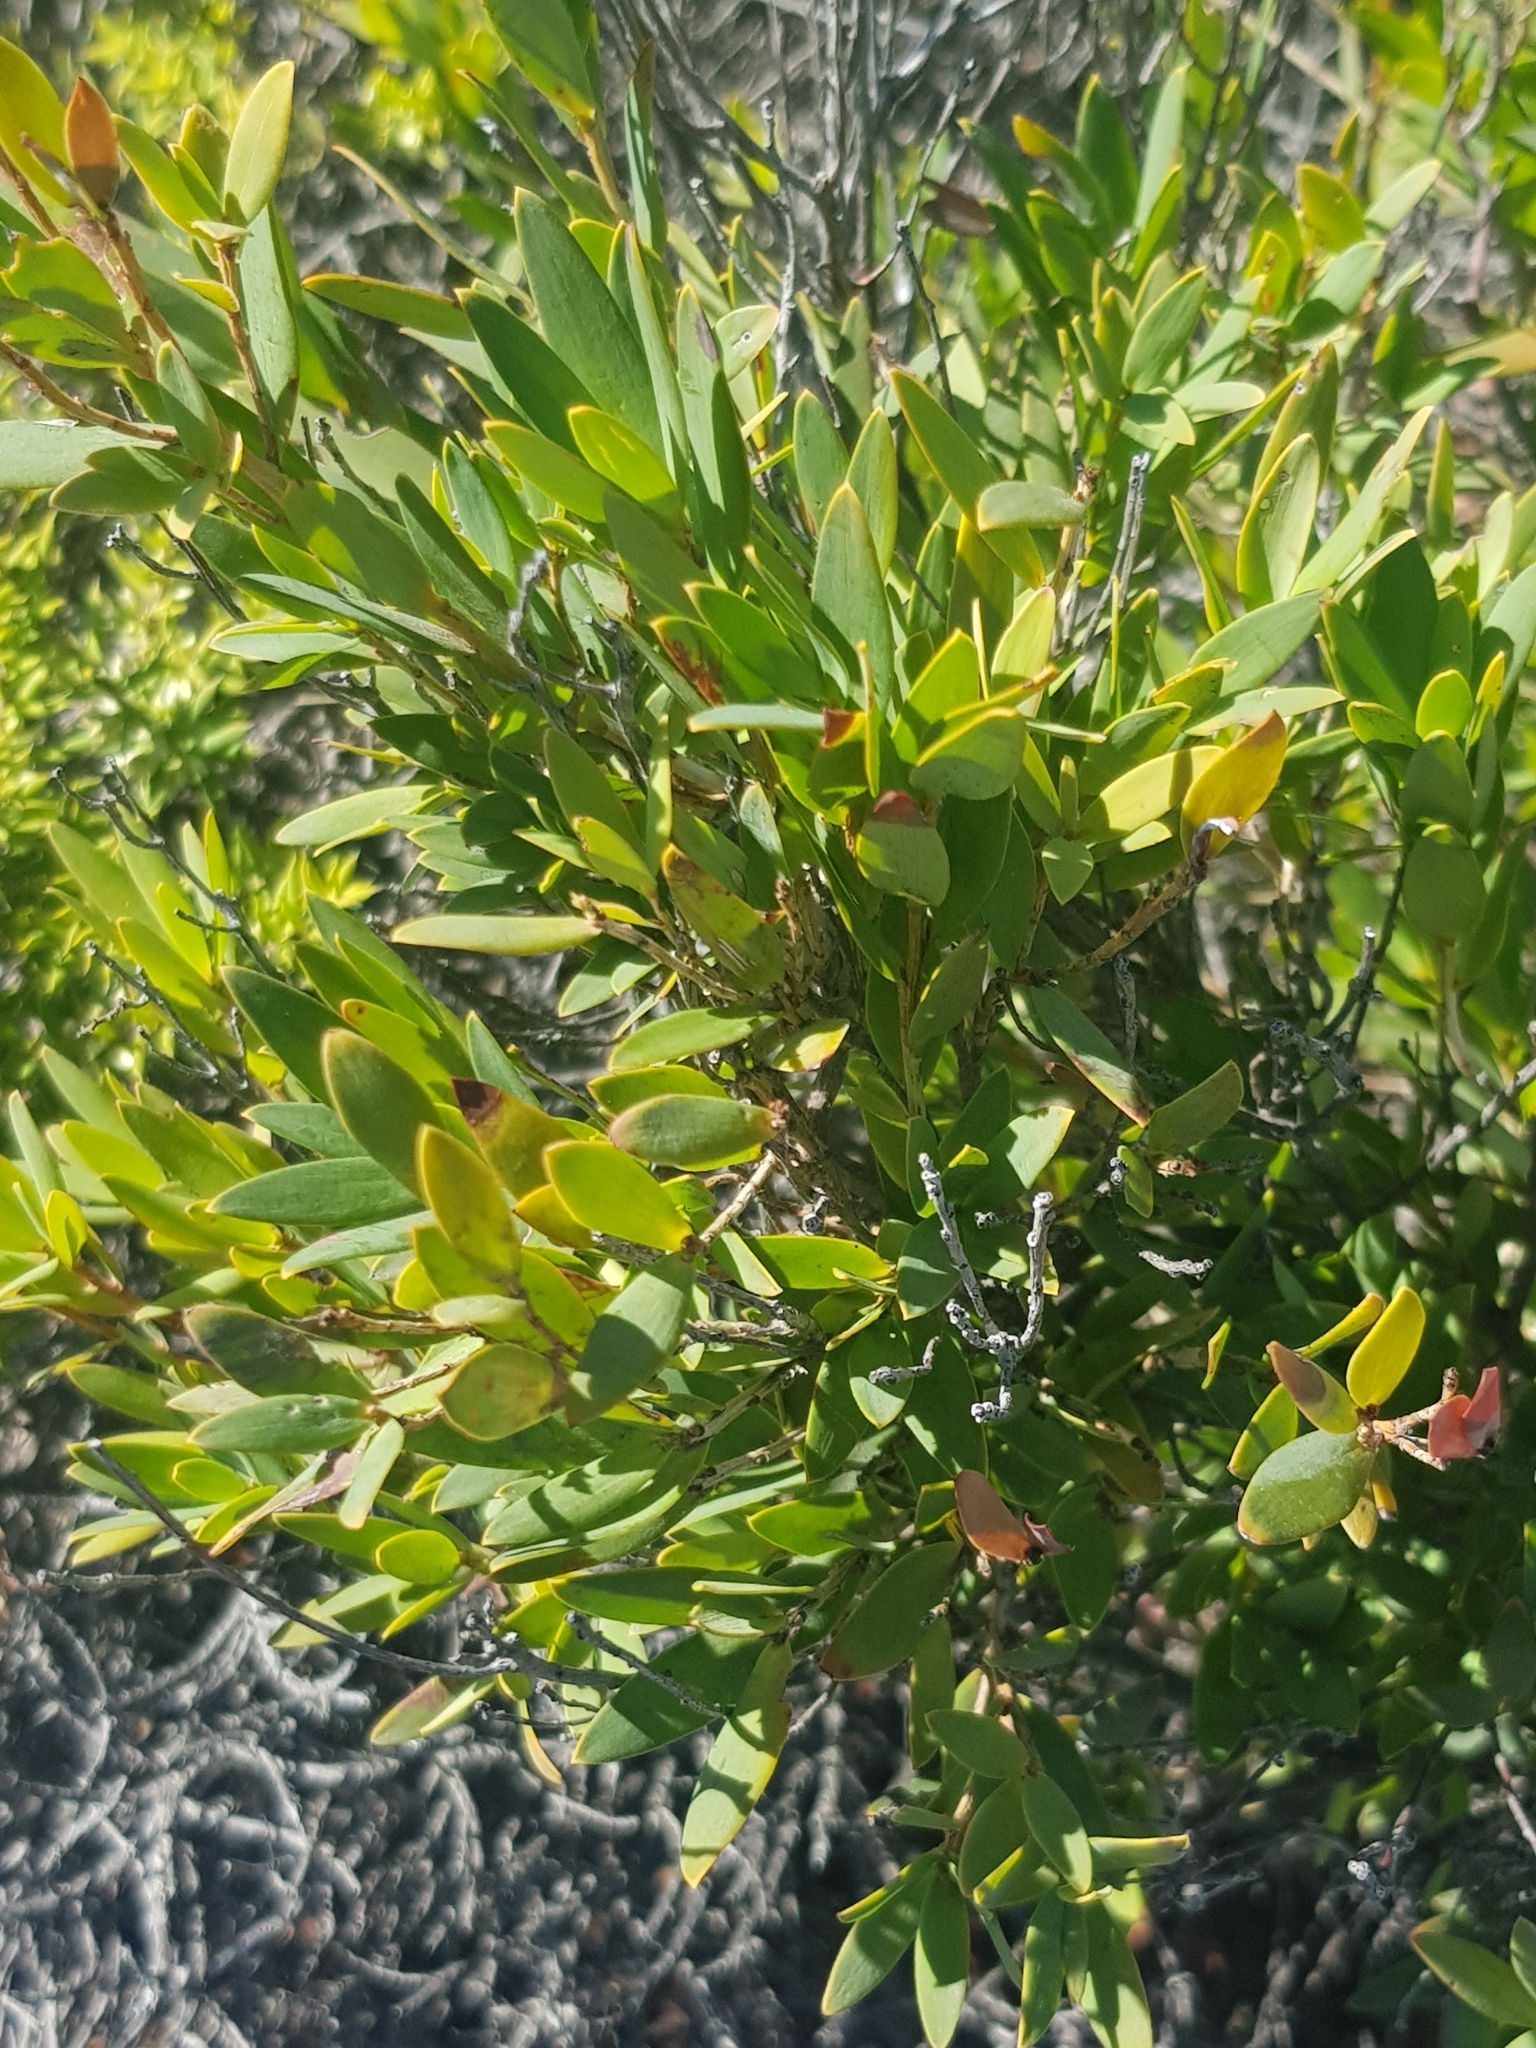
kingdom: Plantae
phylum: Tracheophyta
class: Magnoliopsida
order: Ericales
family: Ericaceae
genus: Leptecophylla
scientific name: Leptecophylla parvifolia
